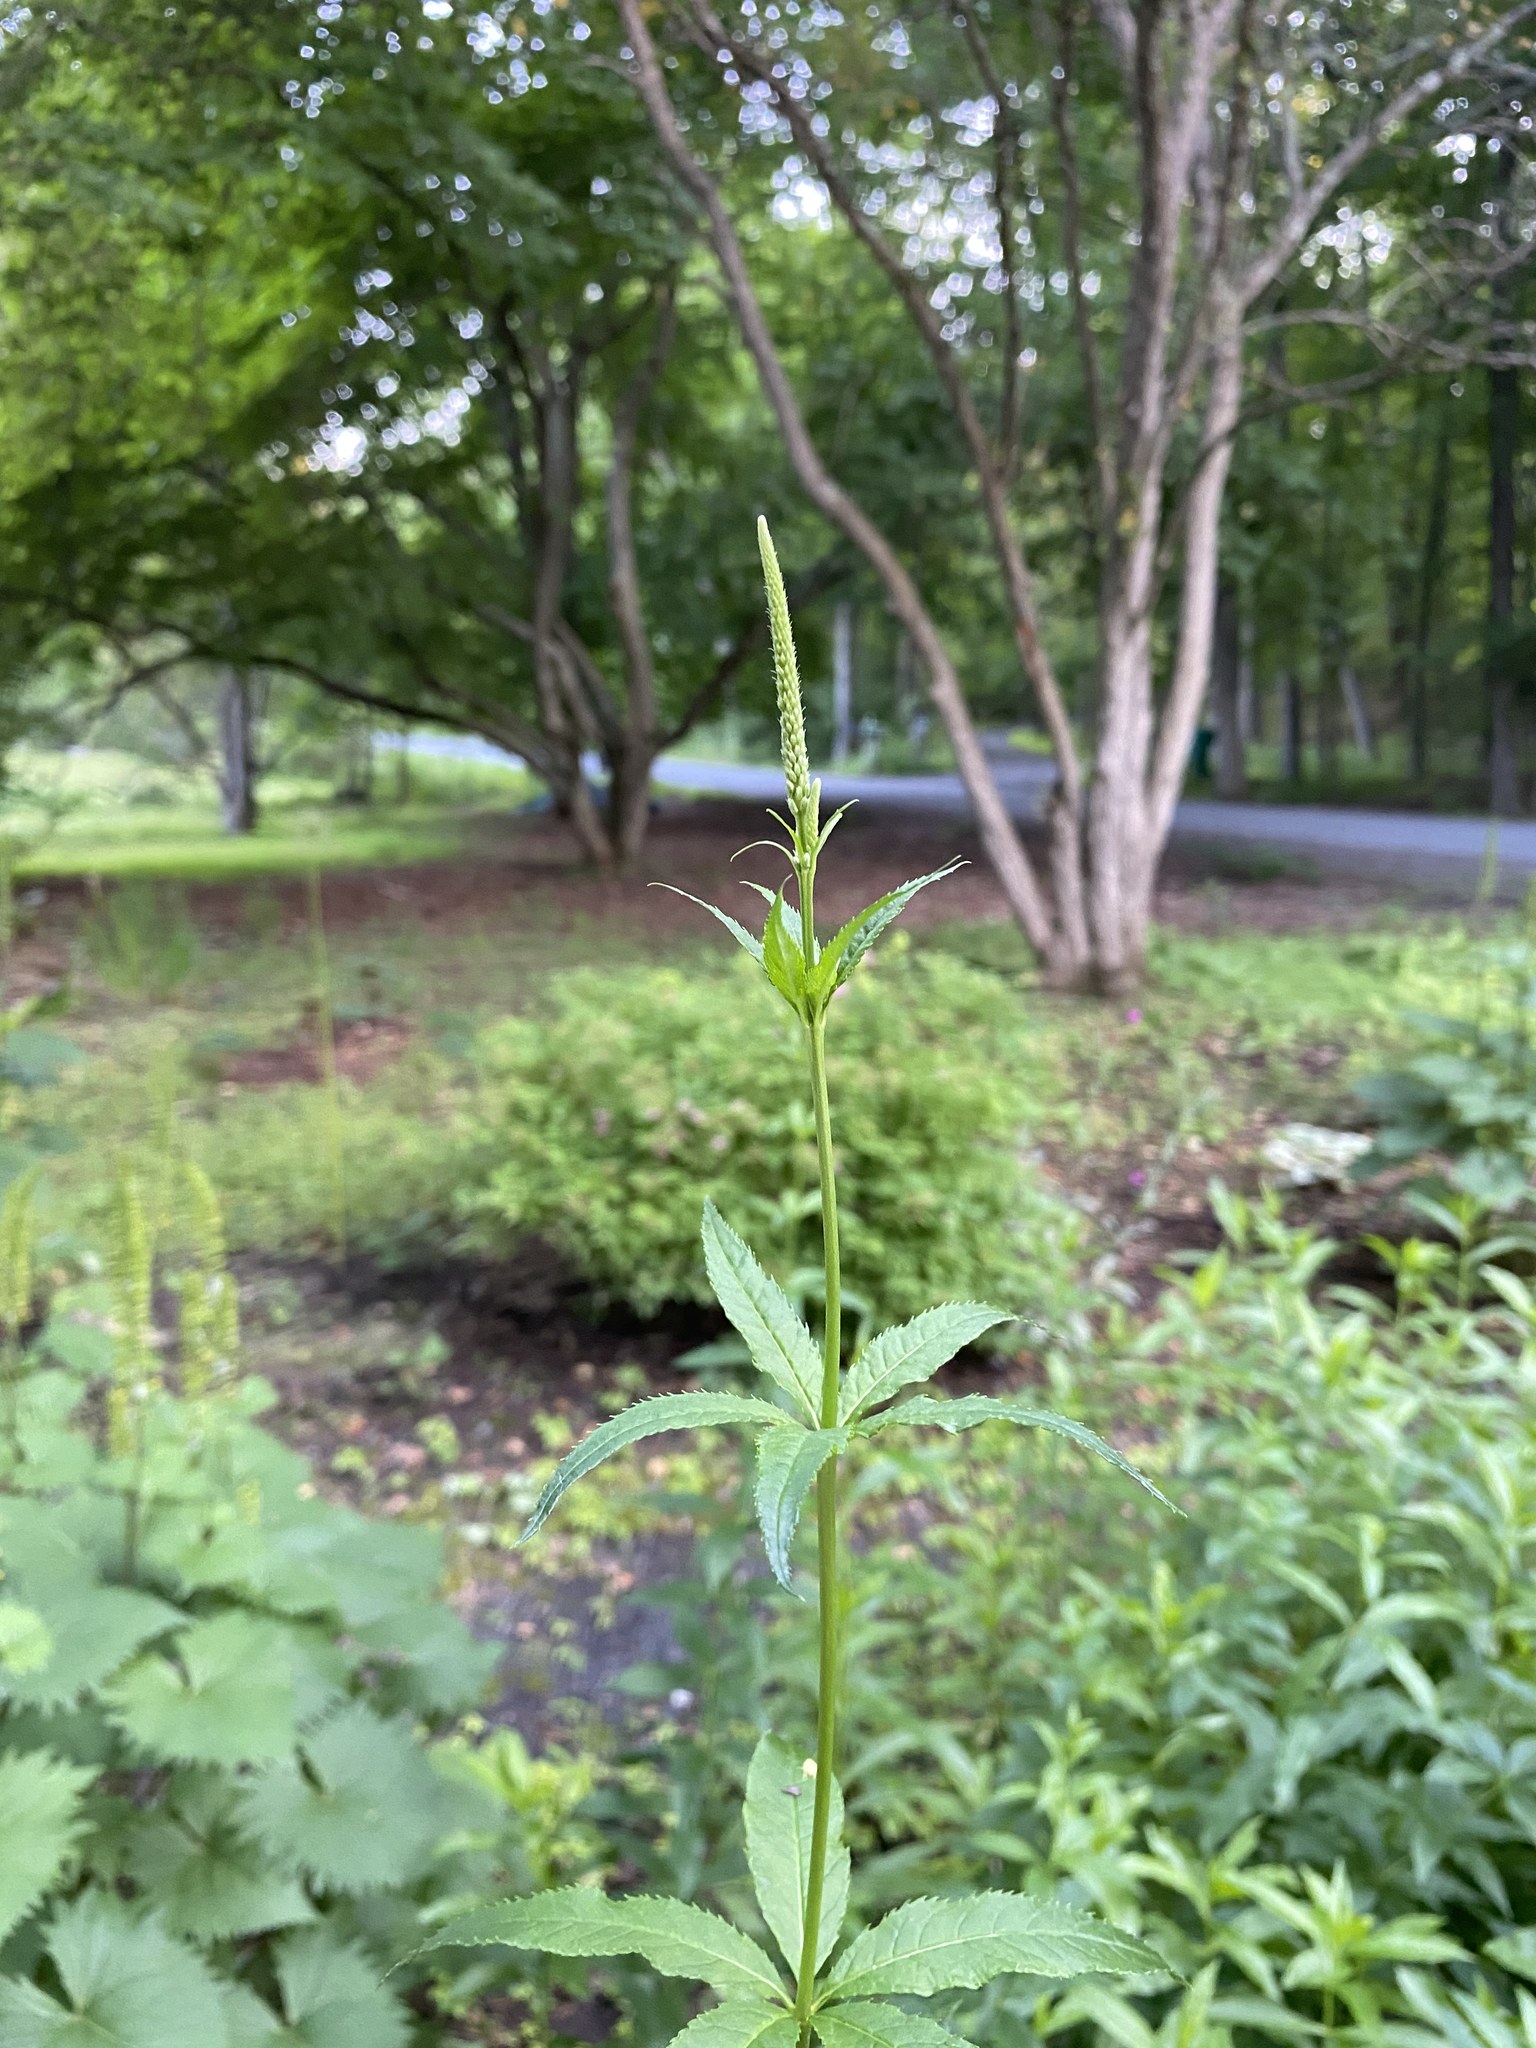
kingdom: Plantae
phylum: Tracheophyta
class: Magnoliopsida
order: Lamiales
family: Plantaginaceae
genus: Veronicastrum
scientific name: Veronicastrum virginicum
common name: Blackroot
